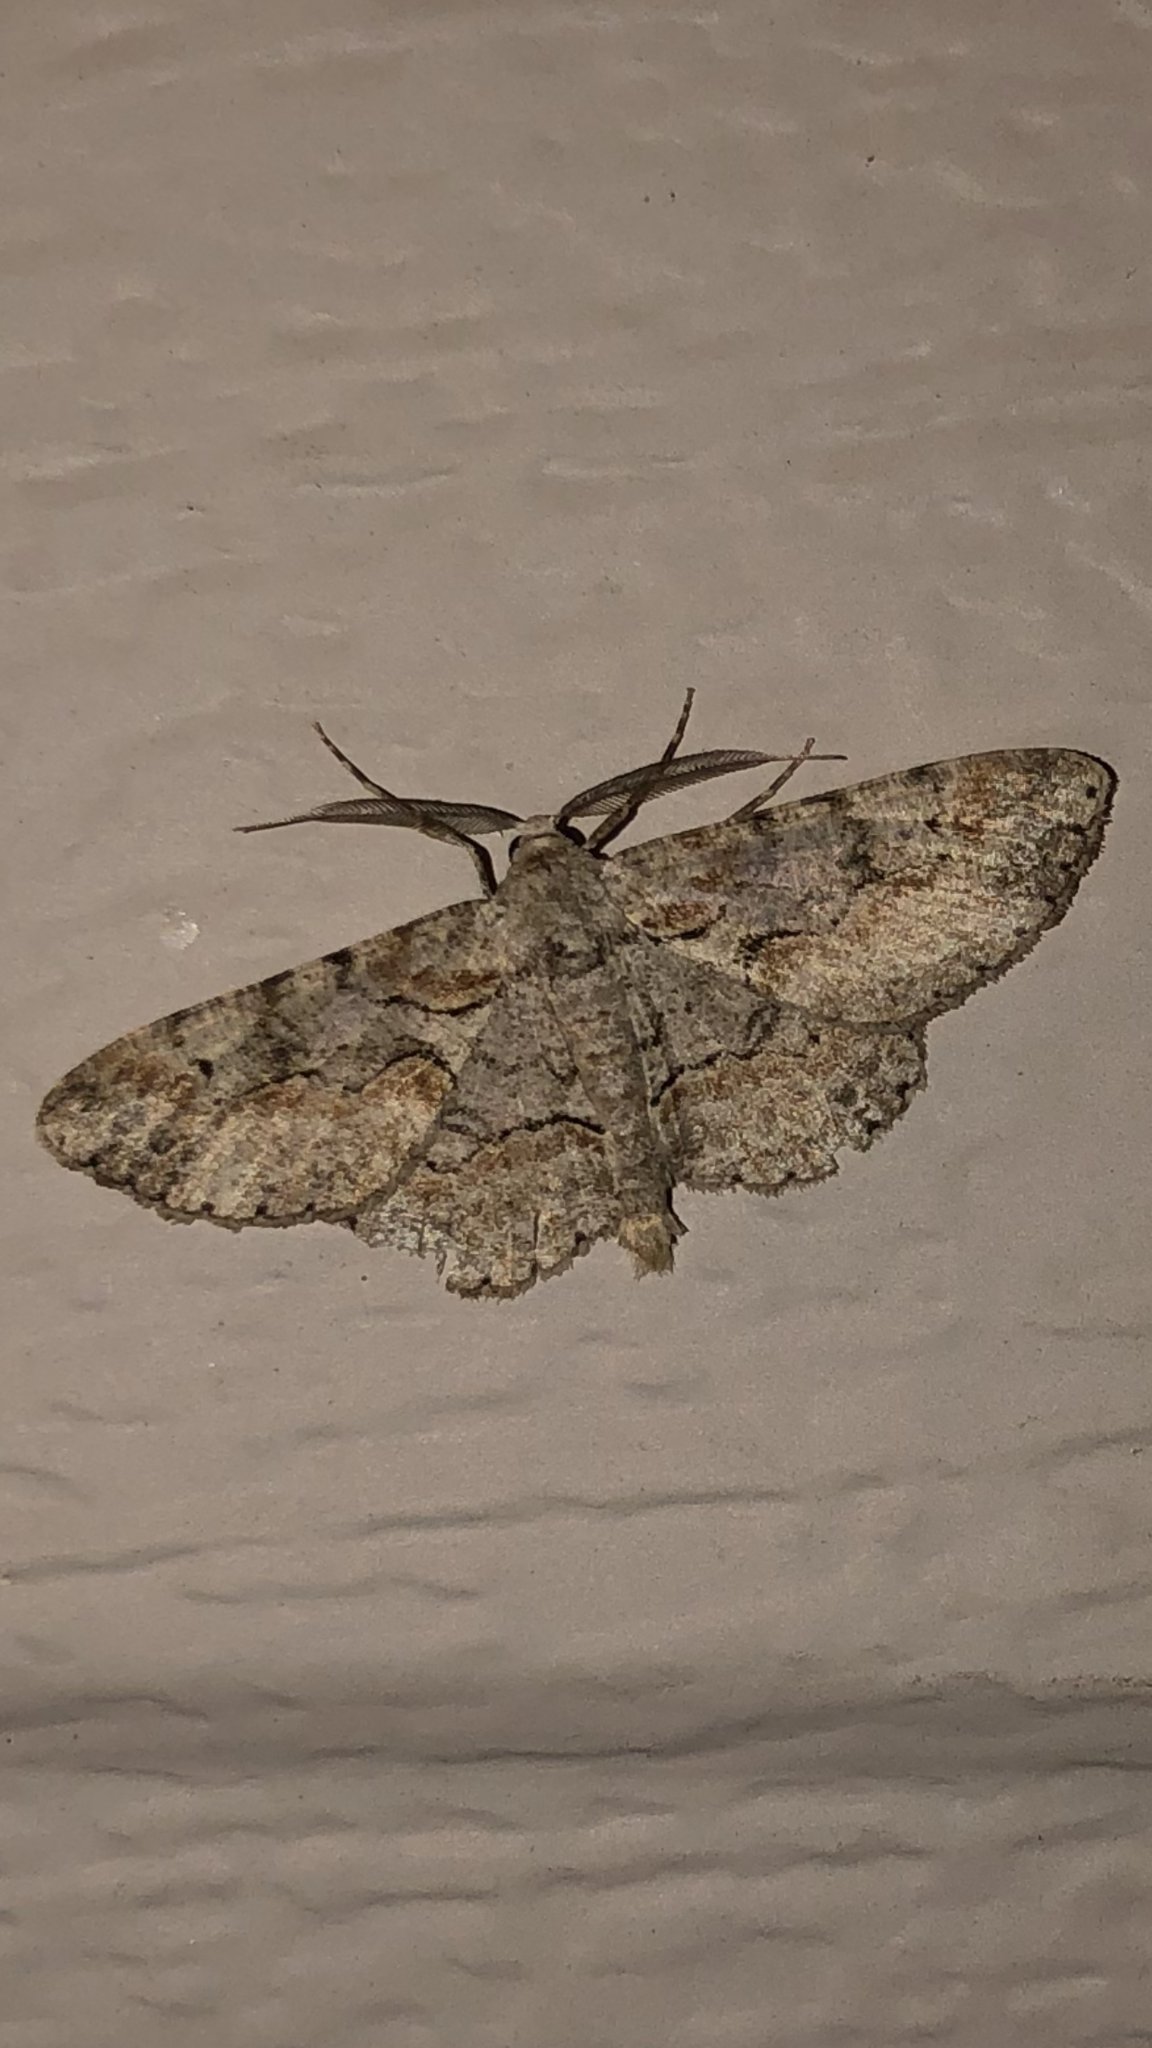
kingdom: Animalia
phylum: Arthropoda
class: Insecta
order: Lepidoptera
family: Geometridae
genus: Iridopsis
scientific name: Iridopsis defectaria
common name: Brown-shaded gray
